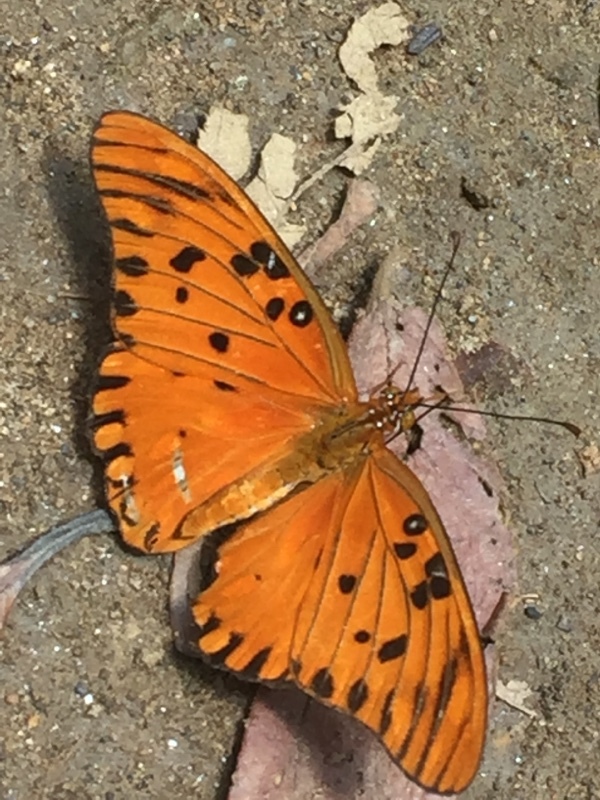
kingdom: Animalia
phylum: Arthropoda
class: Insecta
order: Lepidoptera
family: Nymphalidae
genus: Dione
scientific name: Dione vanillae
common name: Gulf fritillary
